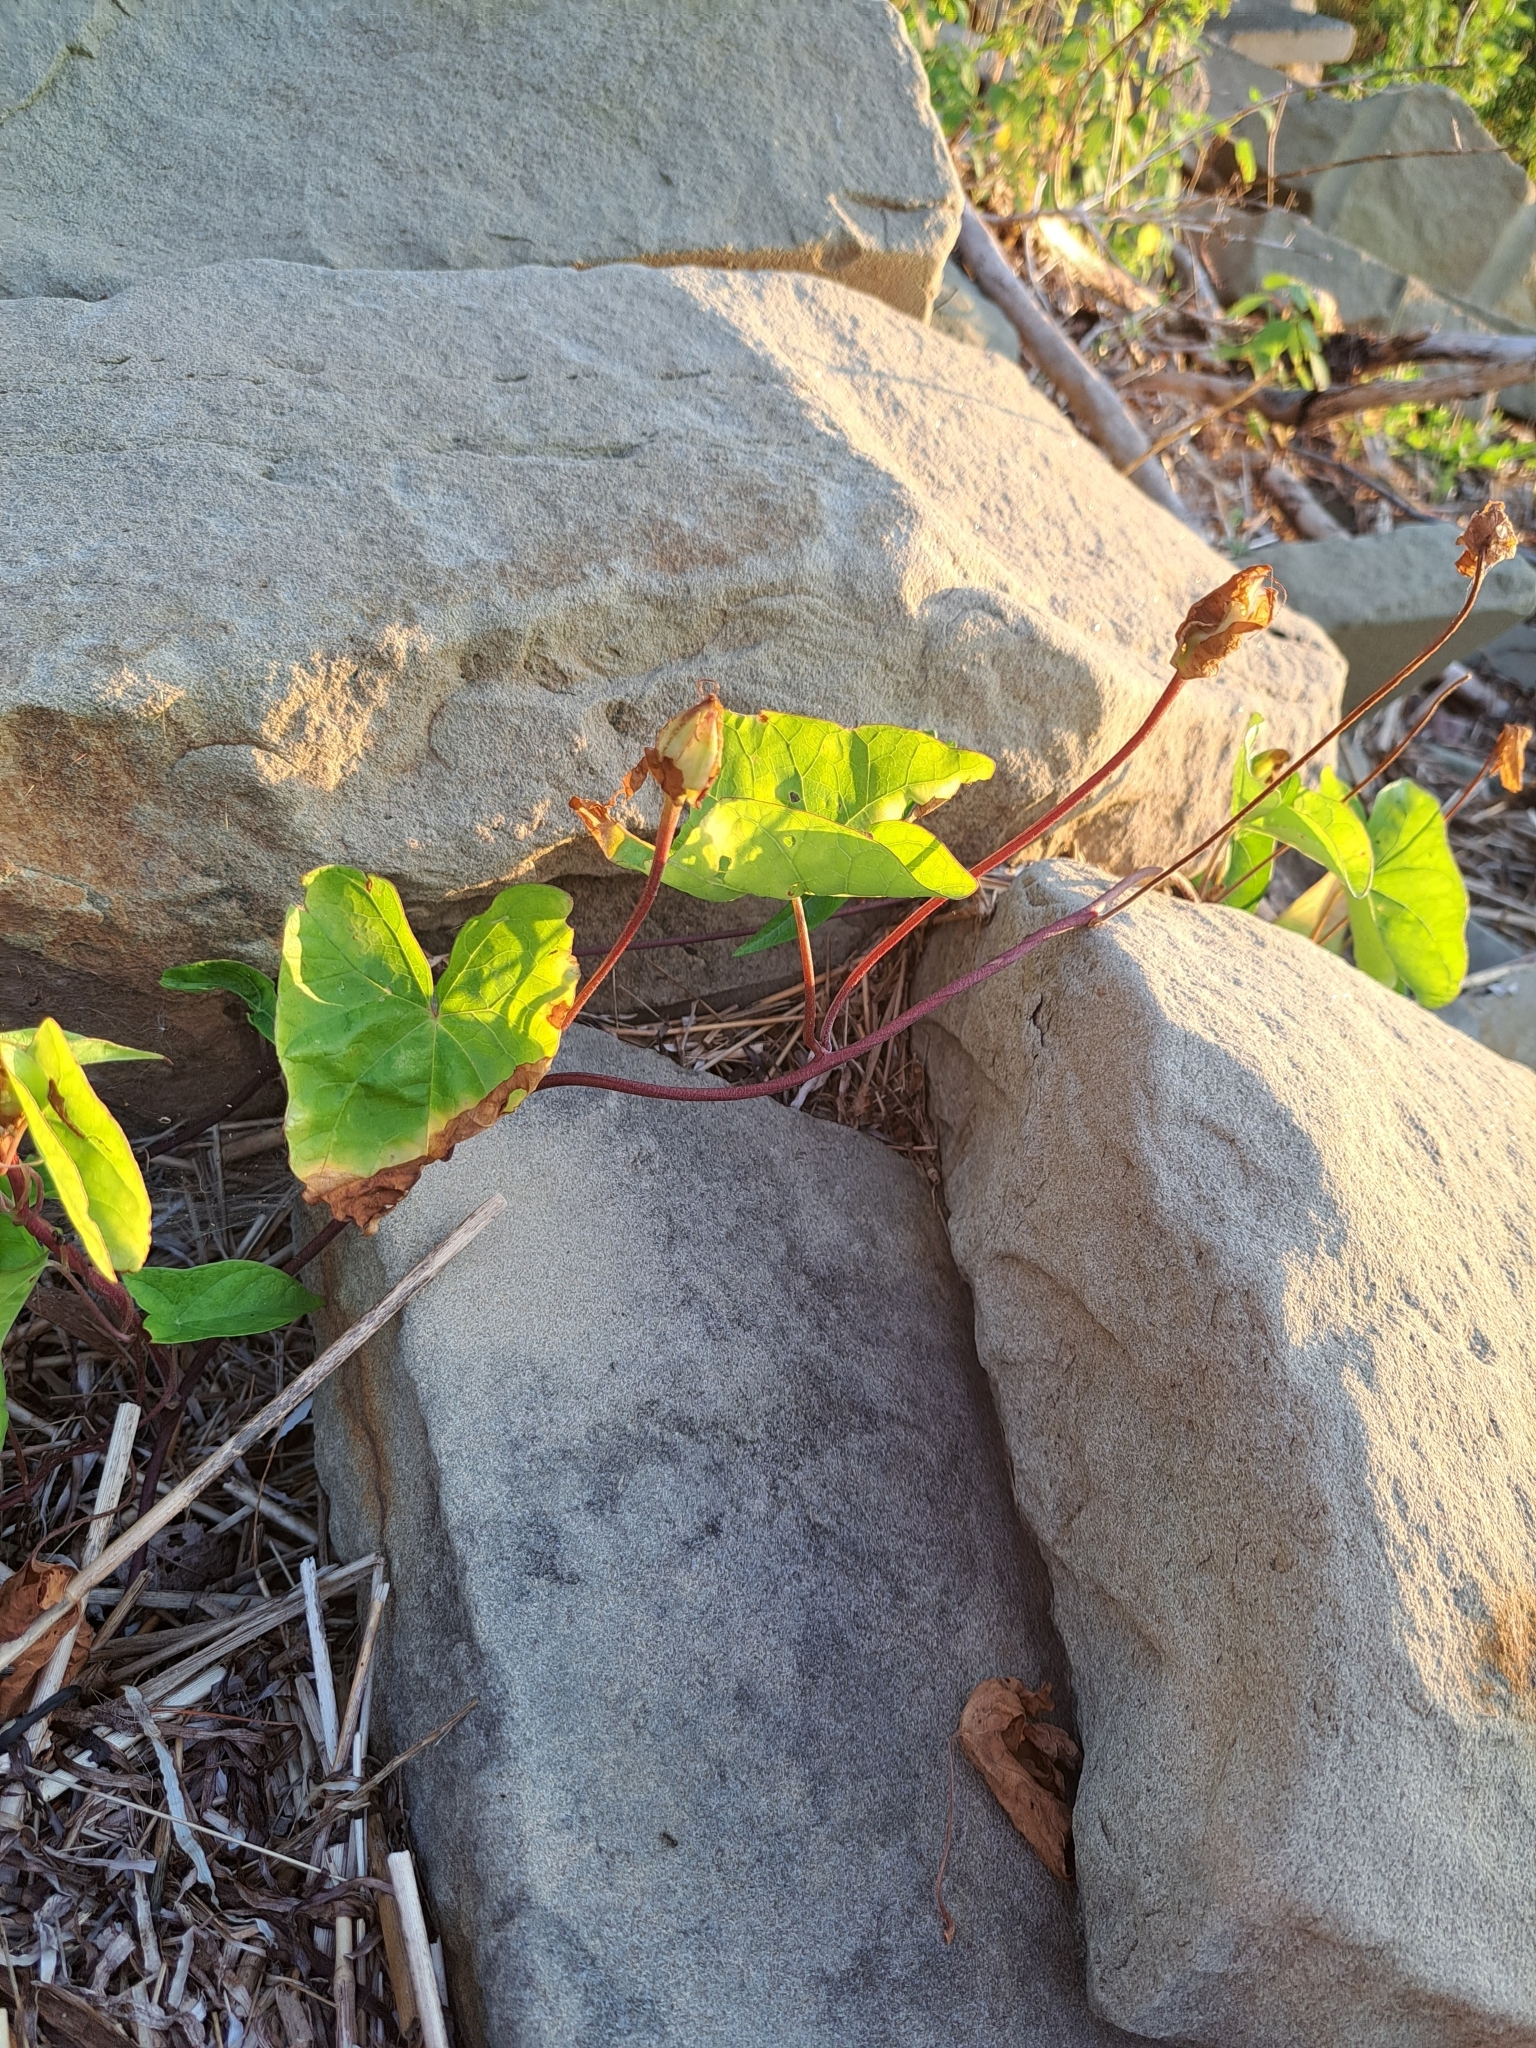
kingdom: Plantae
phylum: Tracheophyta
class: Magnoliopsida
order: Solanales
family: Convolvulaceae
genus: Calystegia
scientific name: Calystegia sepium
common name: Hedge bindweed
